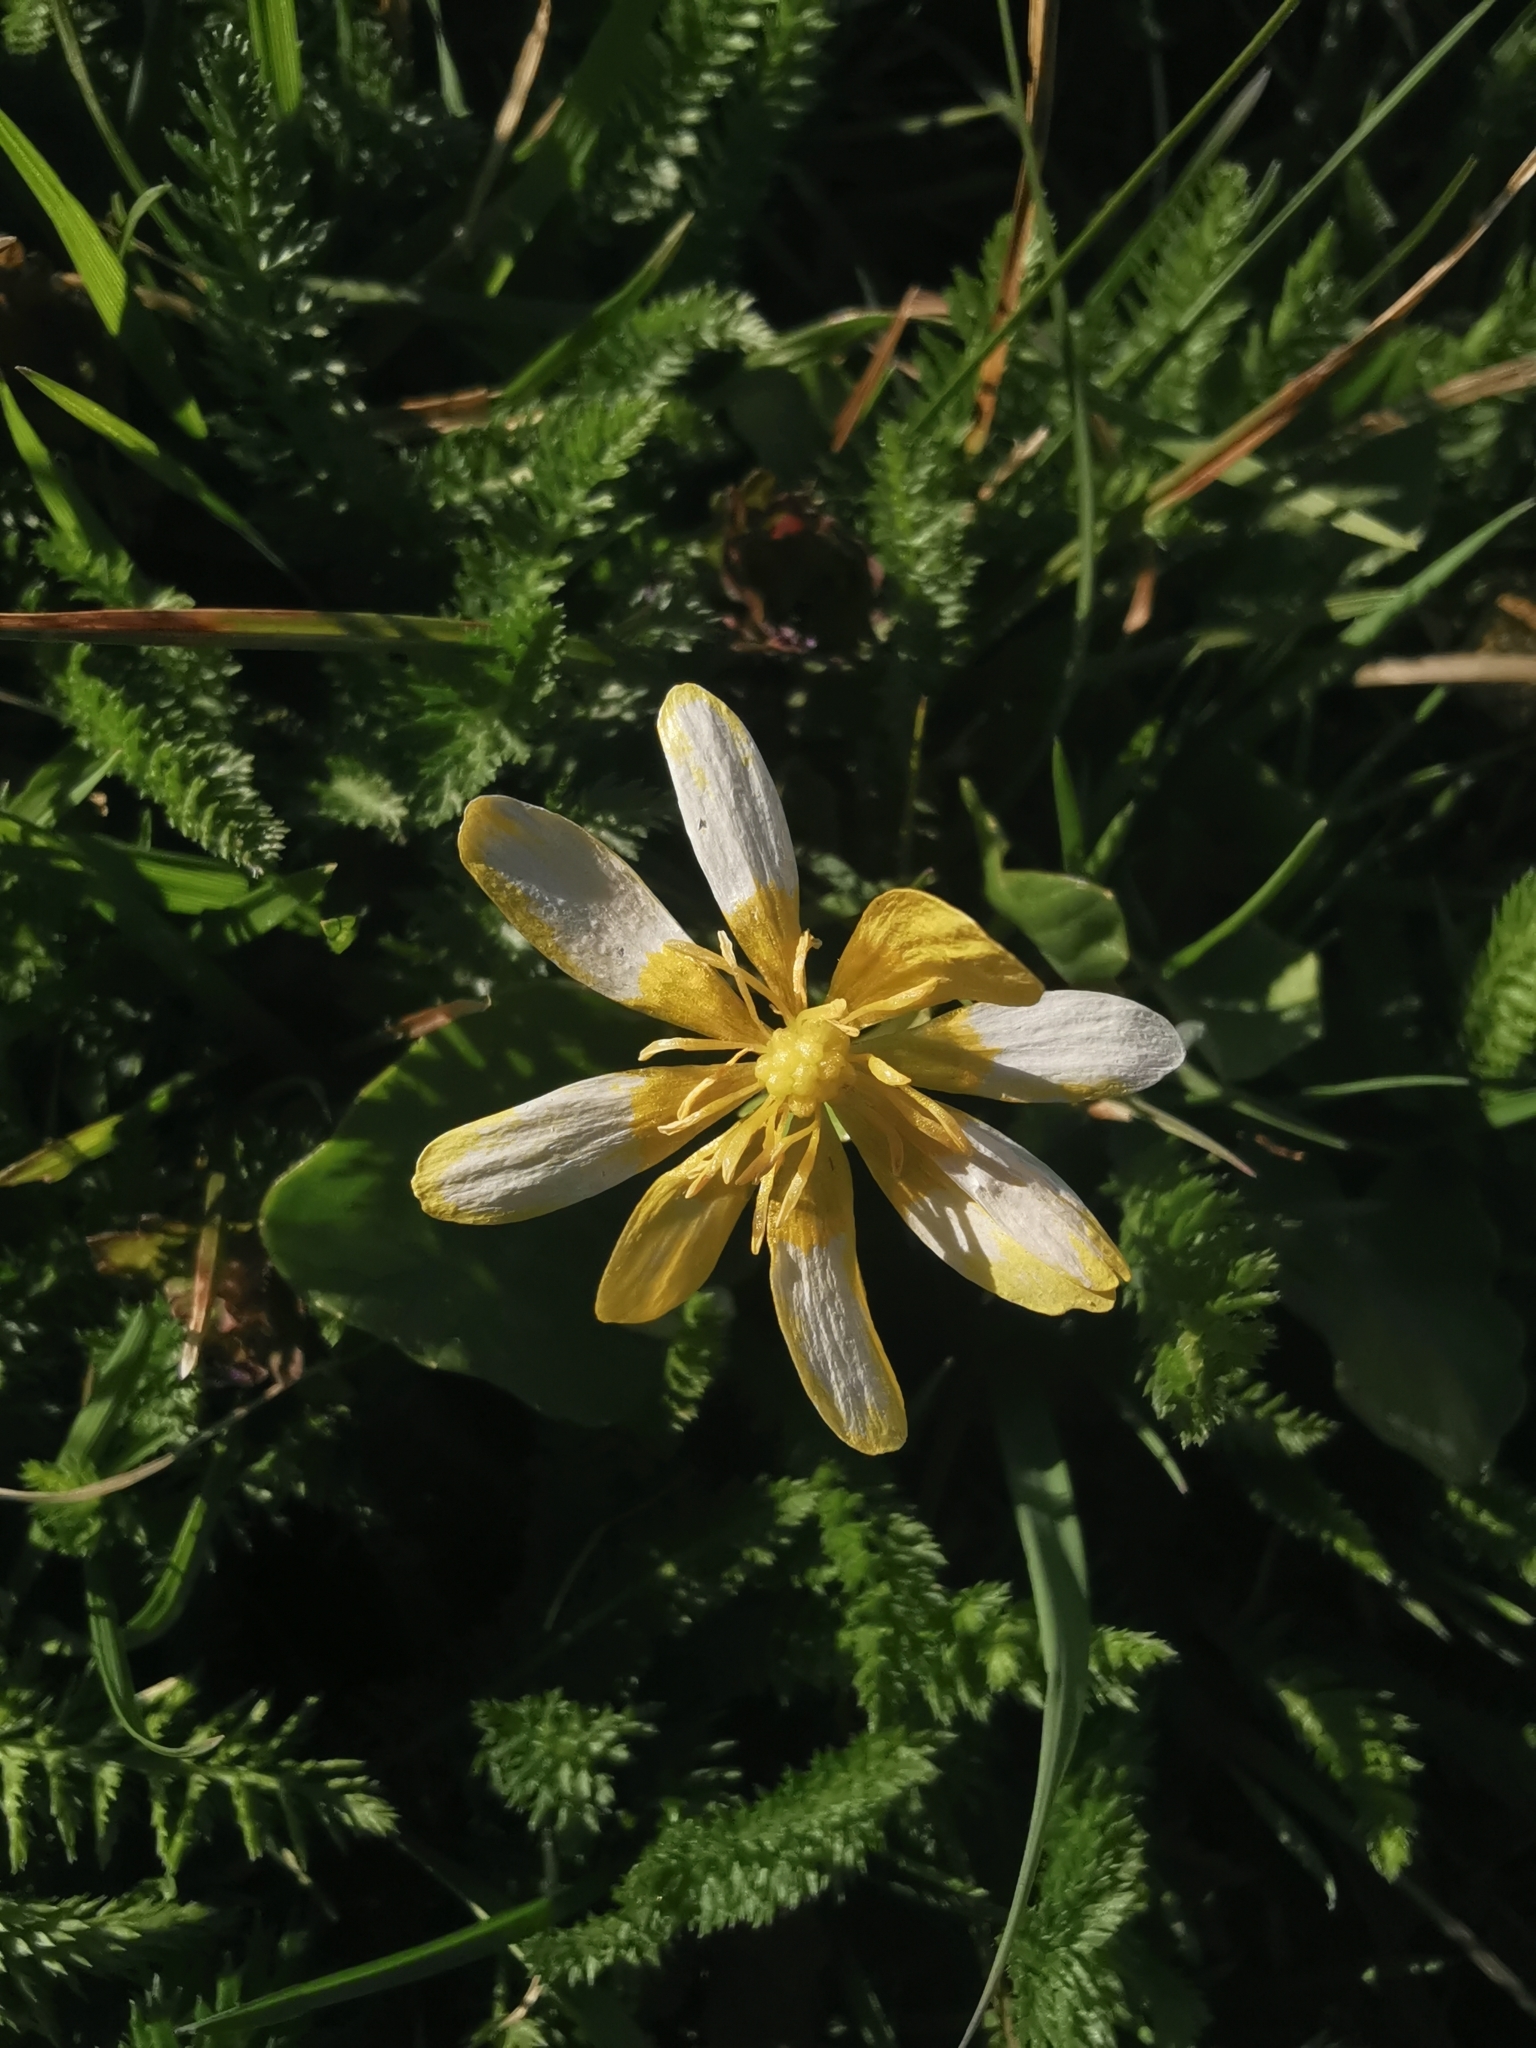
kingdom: Plantae
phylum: Tracheophyta
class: Magnoliopsida
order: Ranunculales
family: Ranunculaceae
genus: Ficaria
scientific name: Ficaria verna
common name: Lesser celandine
